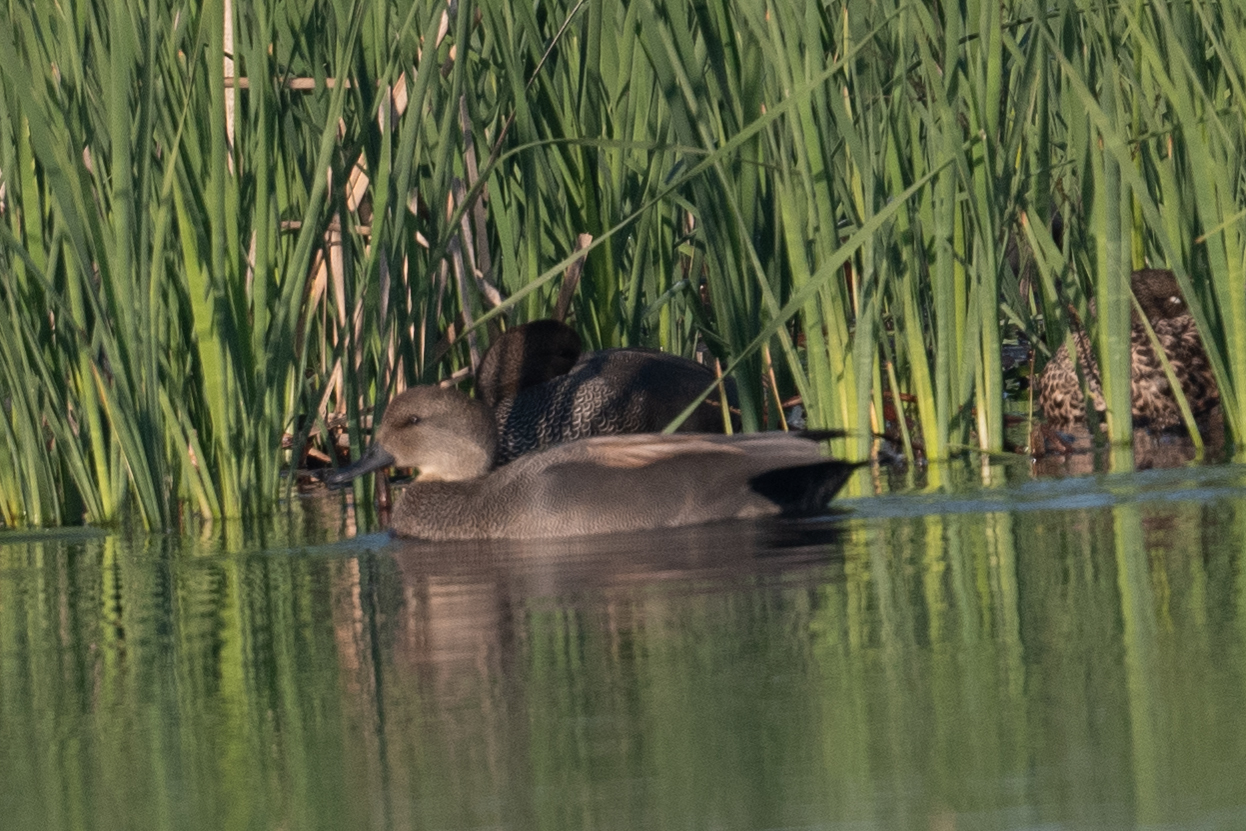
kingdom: Animalia
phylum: Chordata
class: Aves
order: Anseriformes
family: Anatidae
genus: Mareca
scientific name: Mareca strepera
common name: Gadwall
